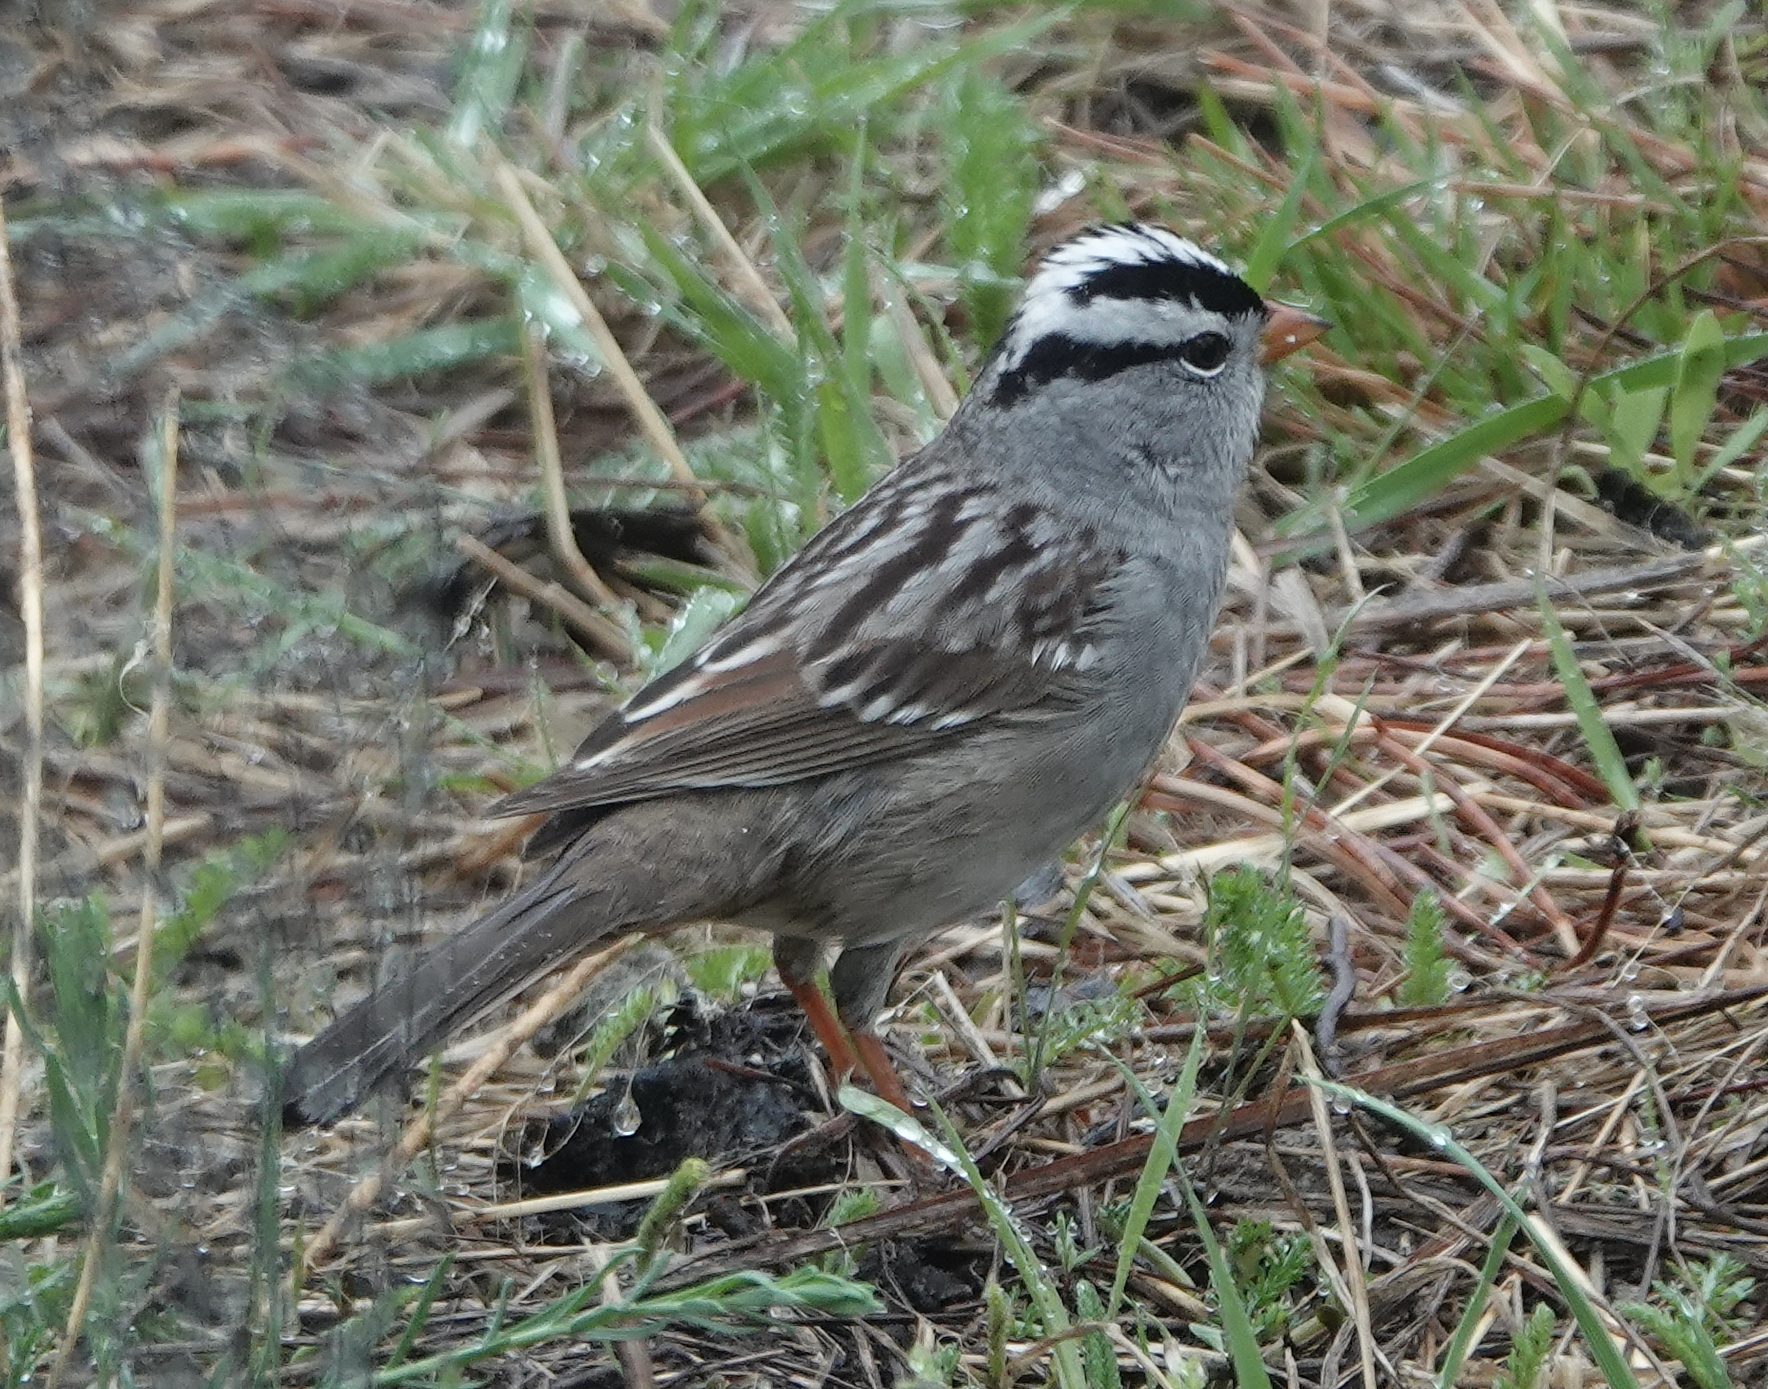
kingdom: Animalia
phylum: Chordata
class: Aves
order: Passeriformes
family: Passerellidae
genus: Zonotrichia
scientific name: Zonotrichia leucophrys
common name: White-crowned sparrow
